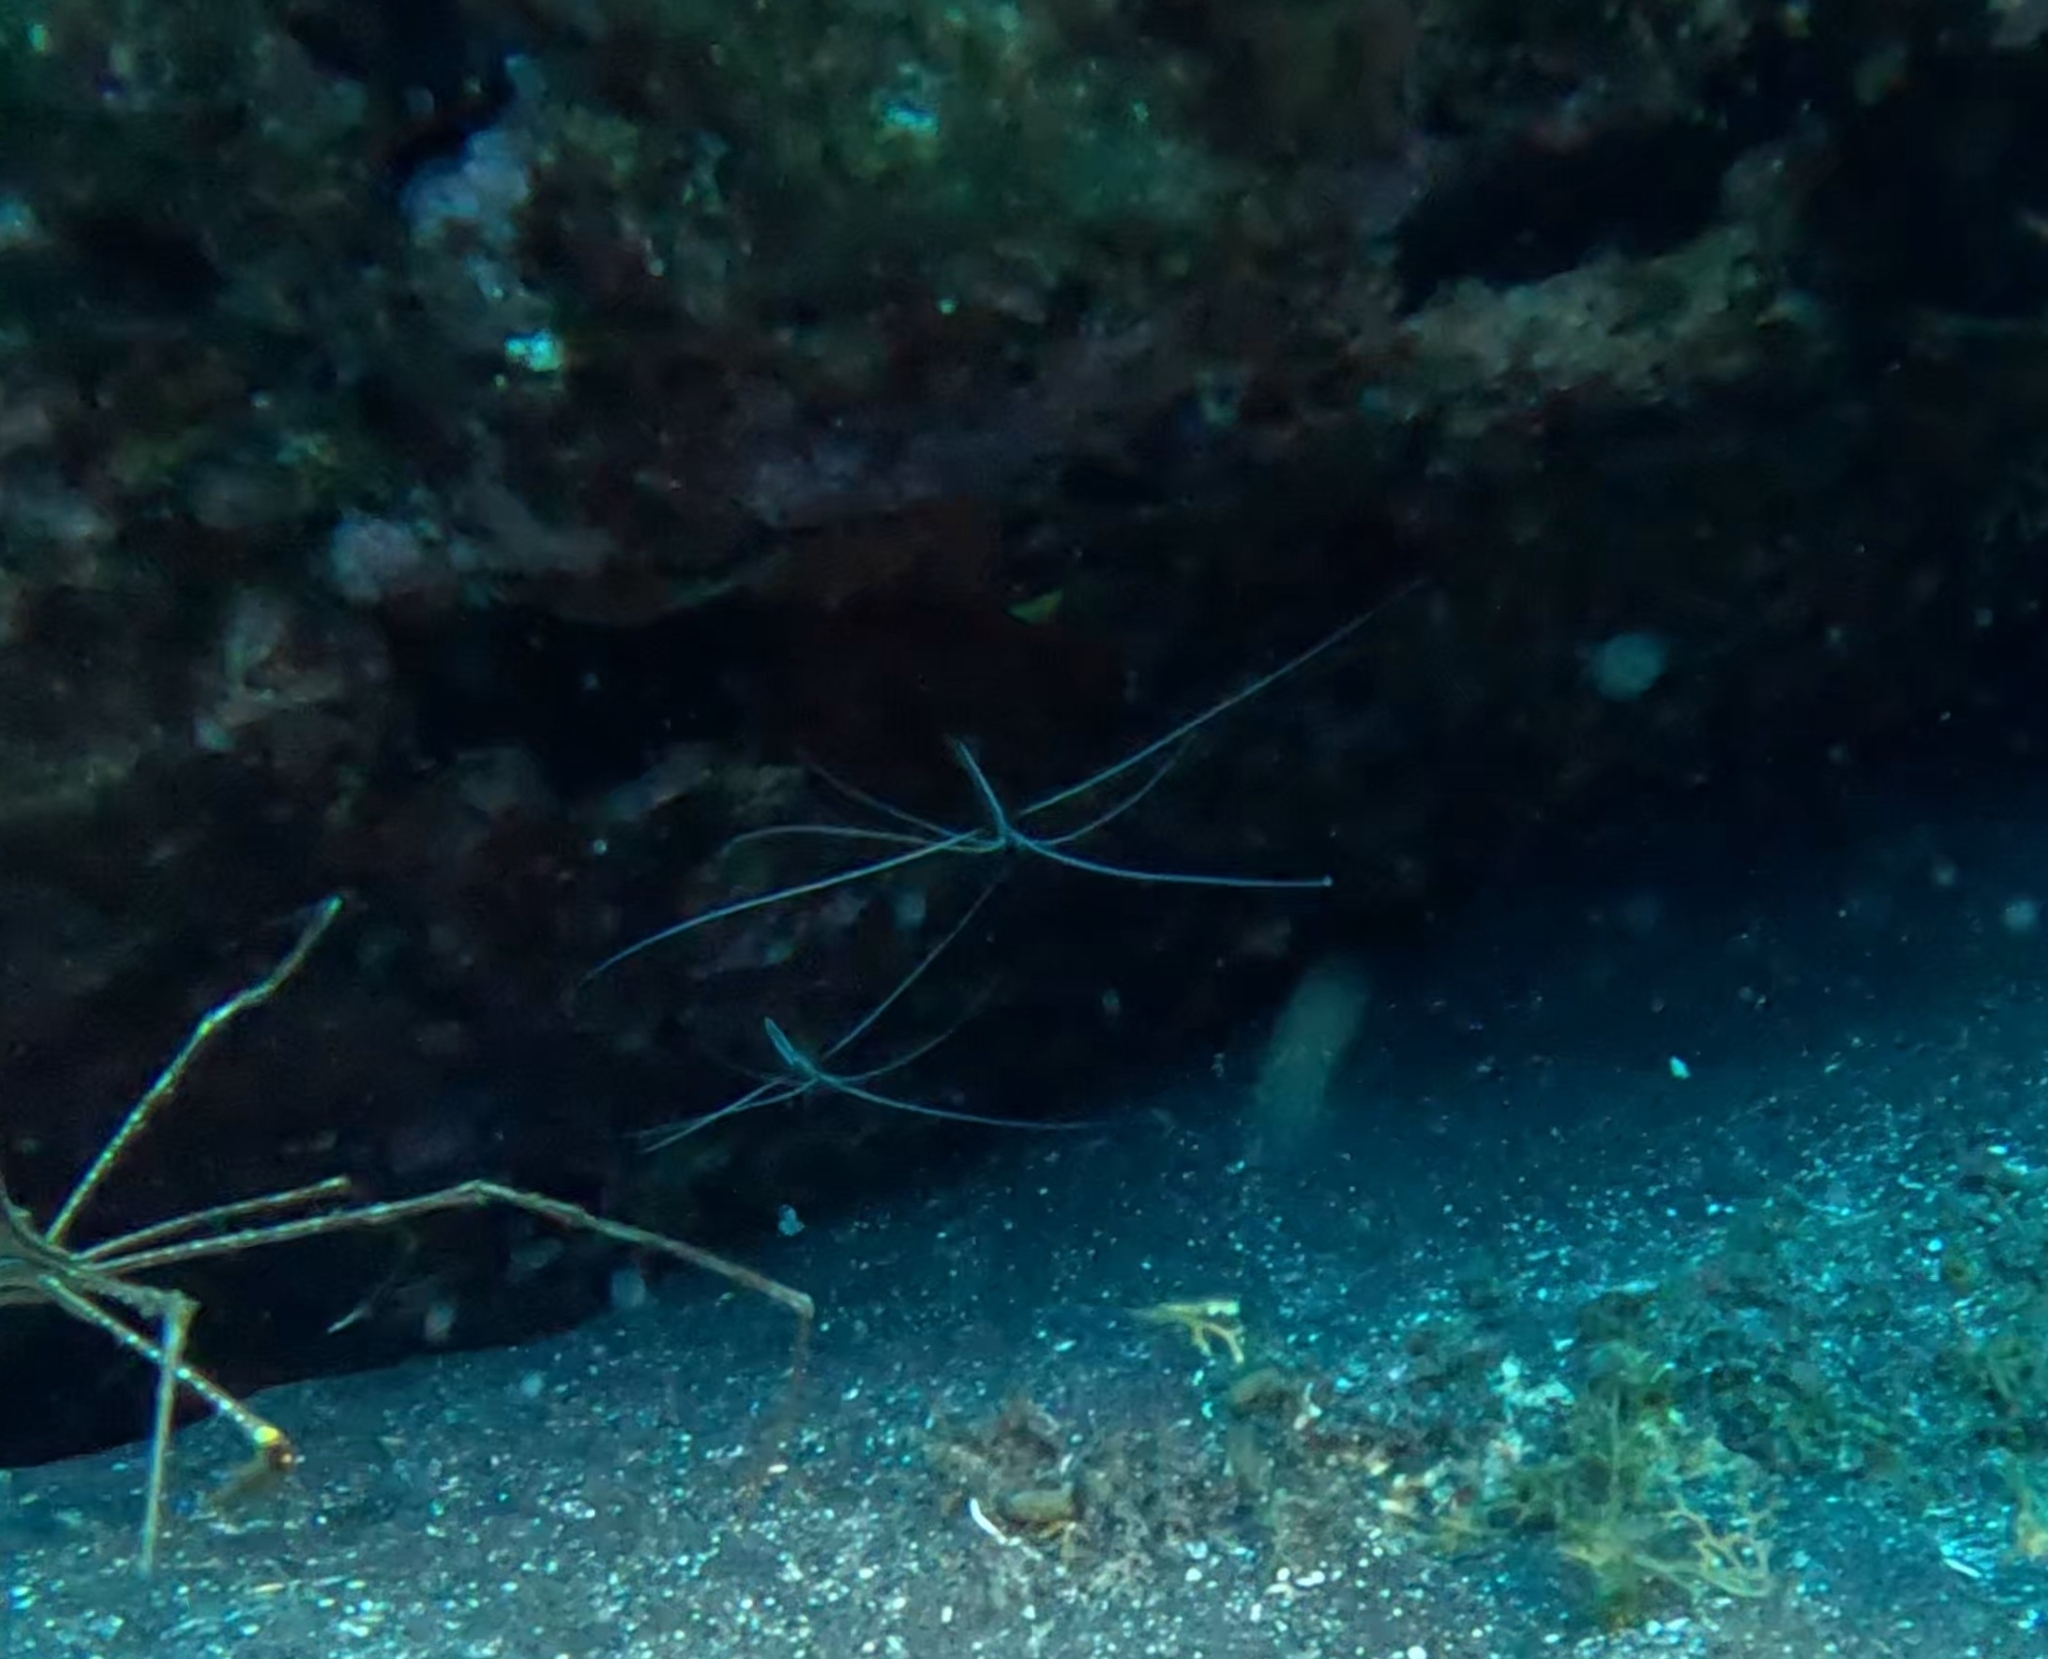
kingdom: Animalia
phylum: Arthropoda
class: Malacostraca
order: Decapoda
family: Lysmatidae
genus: Lysmata
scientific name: Lysmata grabhami
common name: Scarlet-striped cleaning shrimp
